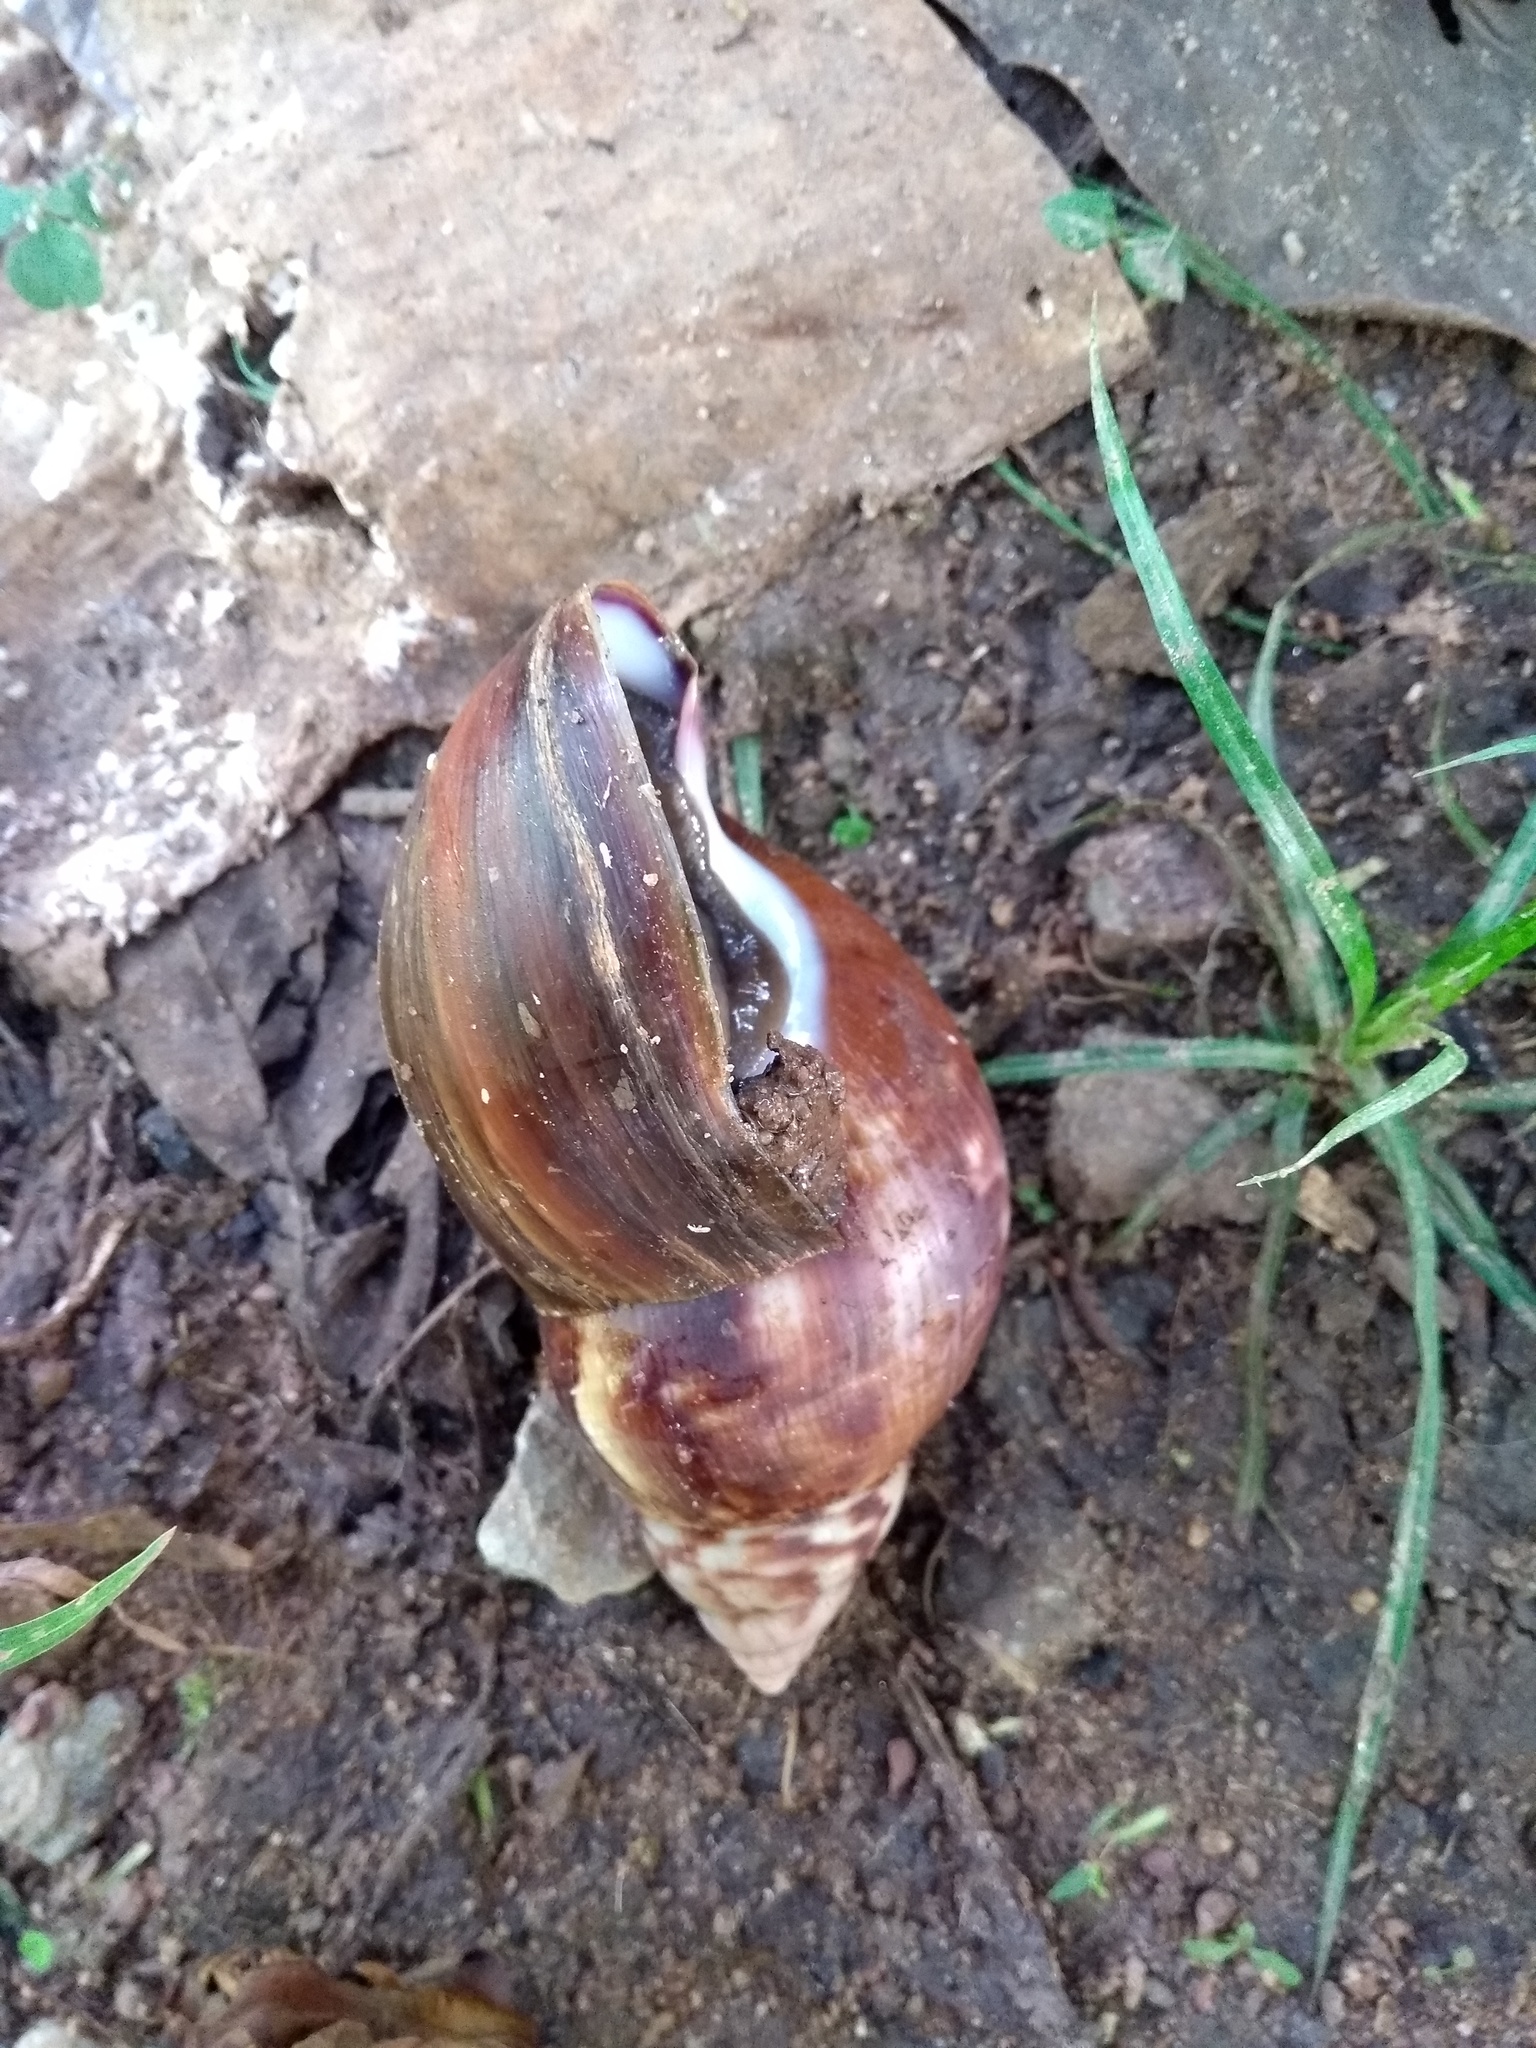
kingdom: Animalia
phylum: Mollusca
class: Gastropoda
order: Stylommatophora
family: Achatinidae
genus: Lissachatina
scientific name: Lissachatina fulica
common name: Giant african snail
